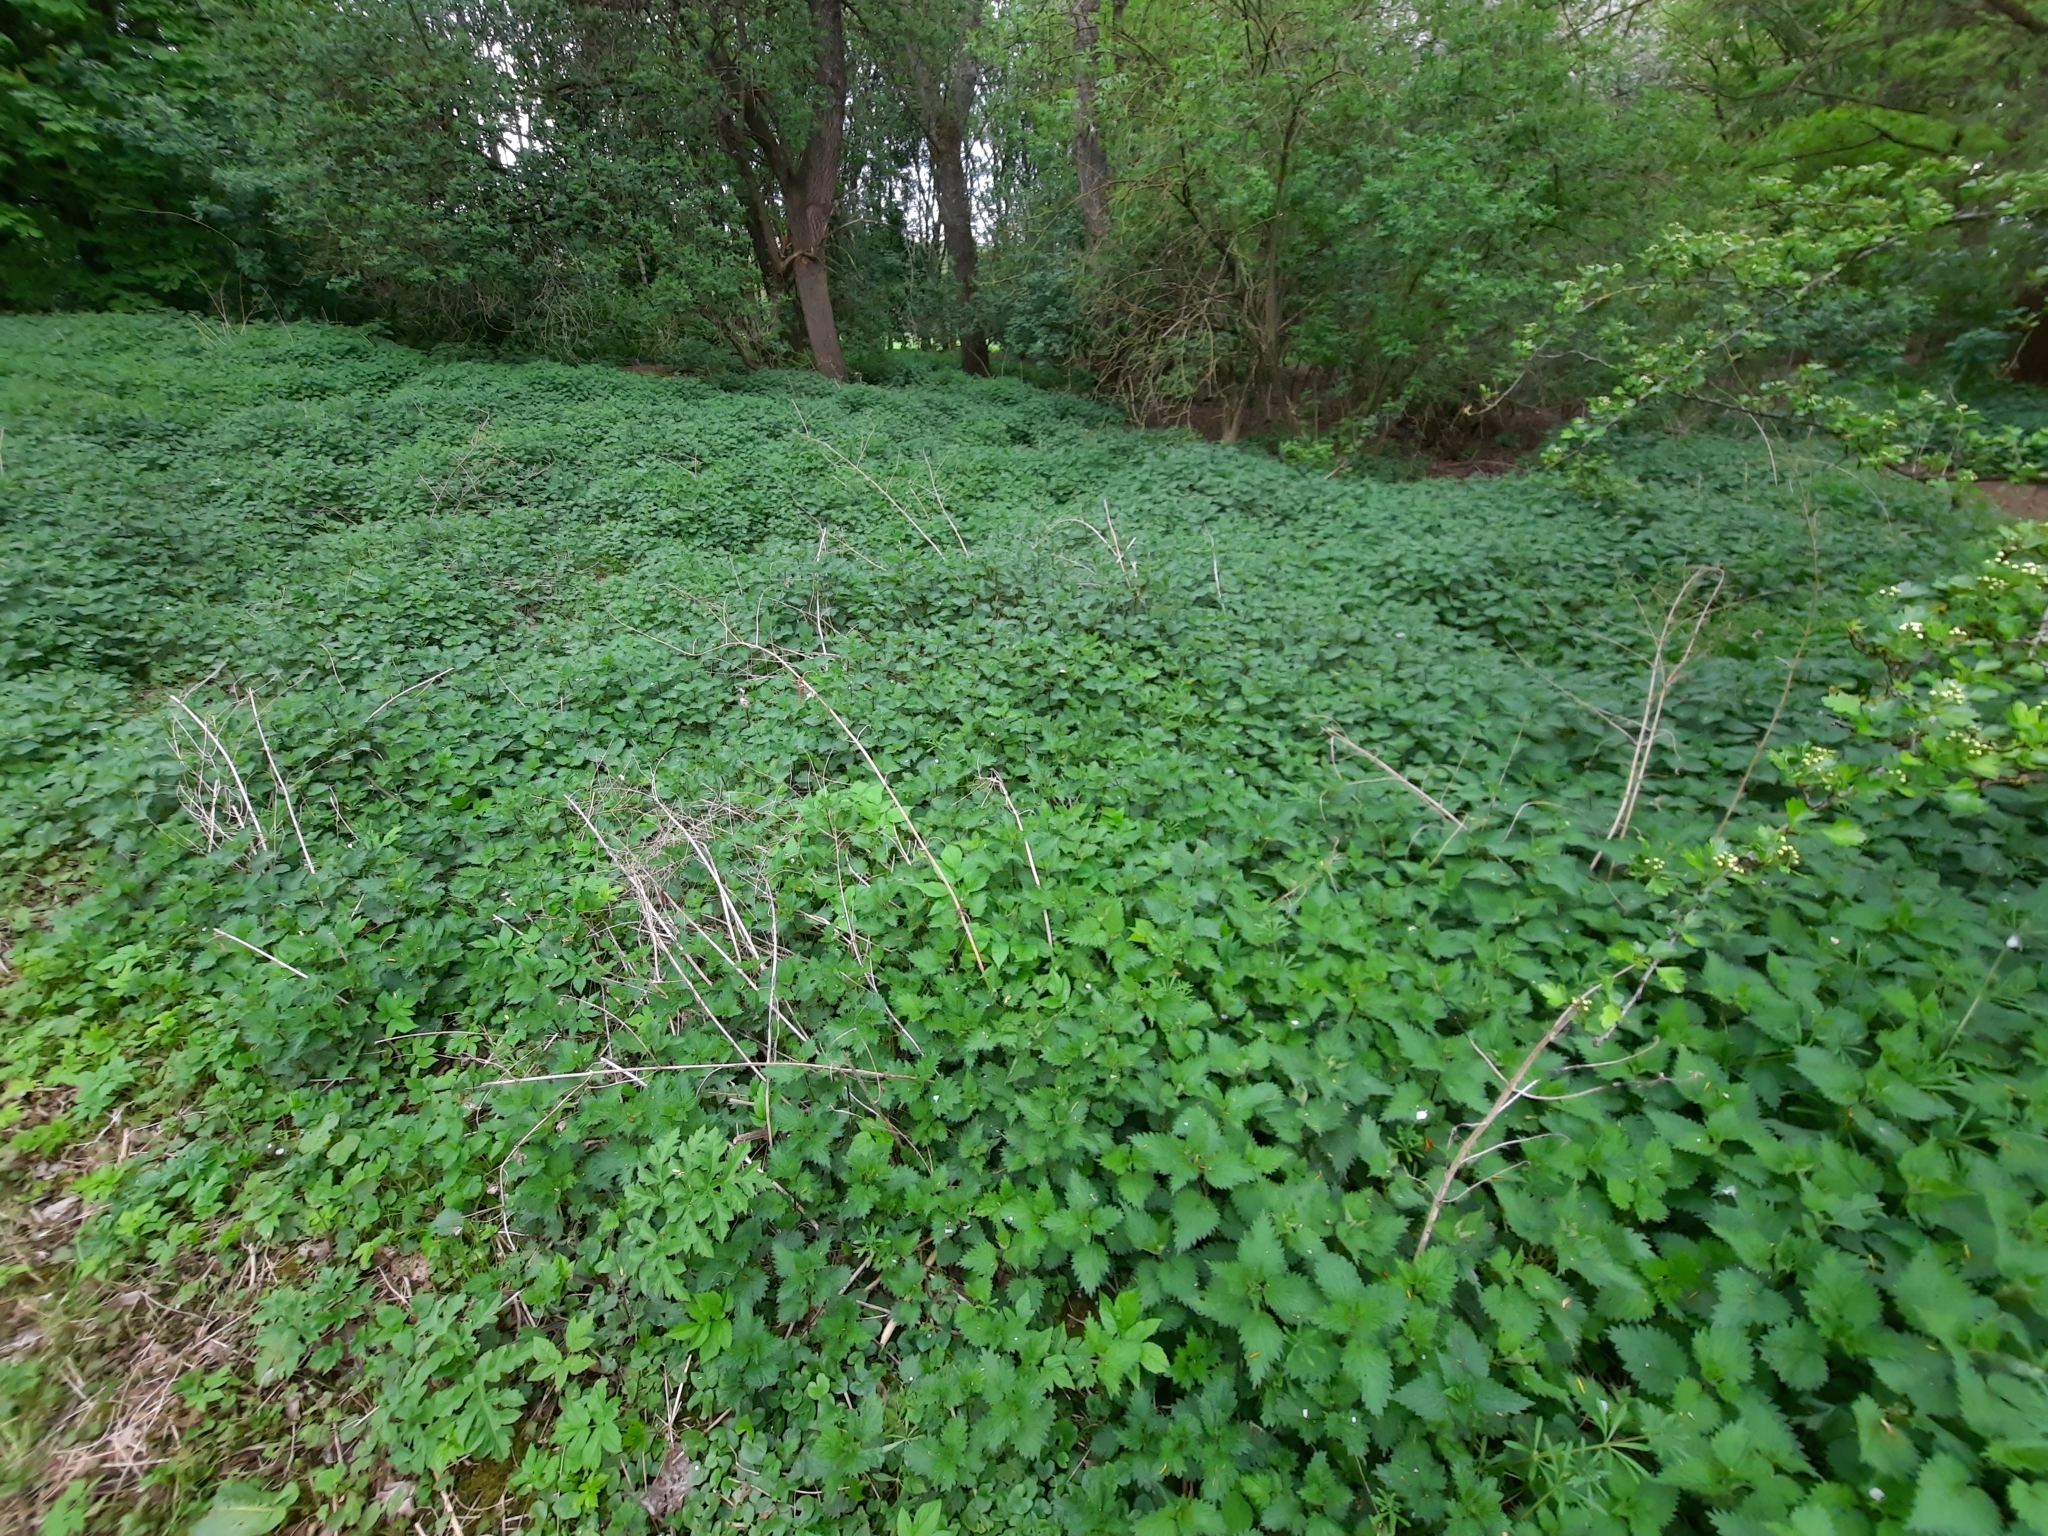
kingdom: Plantae
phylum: Tracheophyta
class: Magnoliopsida
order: Rosales
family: Urticaceae
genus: Urtica
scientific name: Urtica dioica
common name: Common nettle
